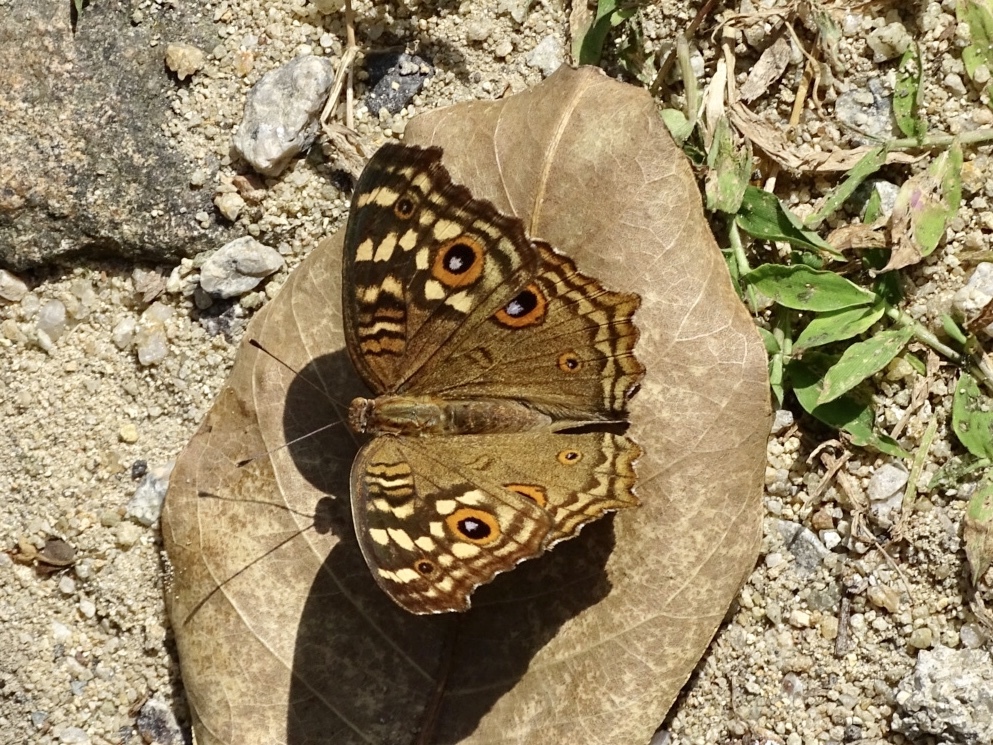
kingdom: Animalia
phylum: Arthropoda
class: Insecta
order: Lepidoptera
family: Nymphalidae
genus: Junonia
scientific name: Junonia lemonias
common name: Lemon pansy
